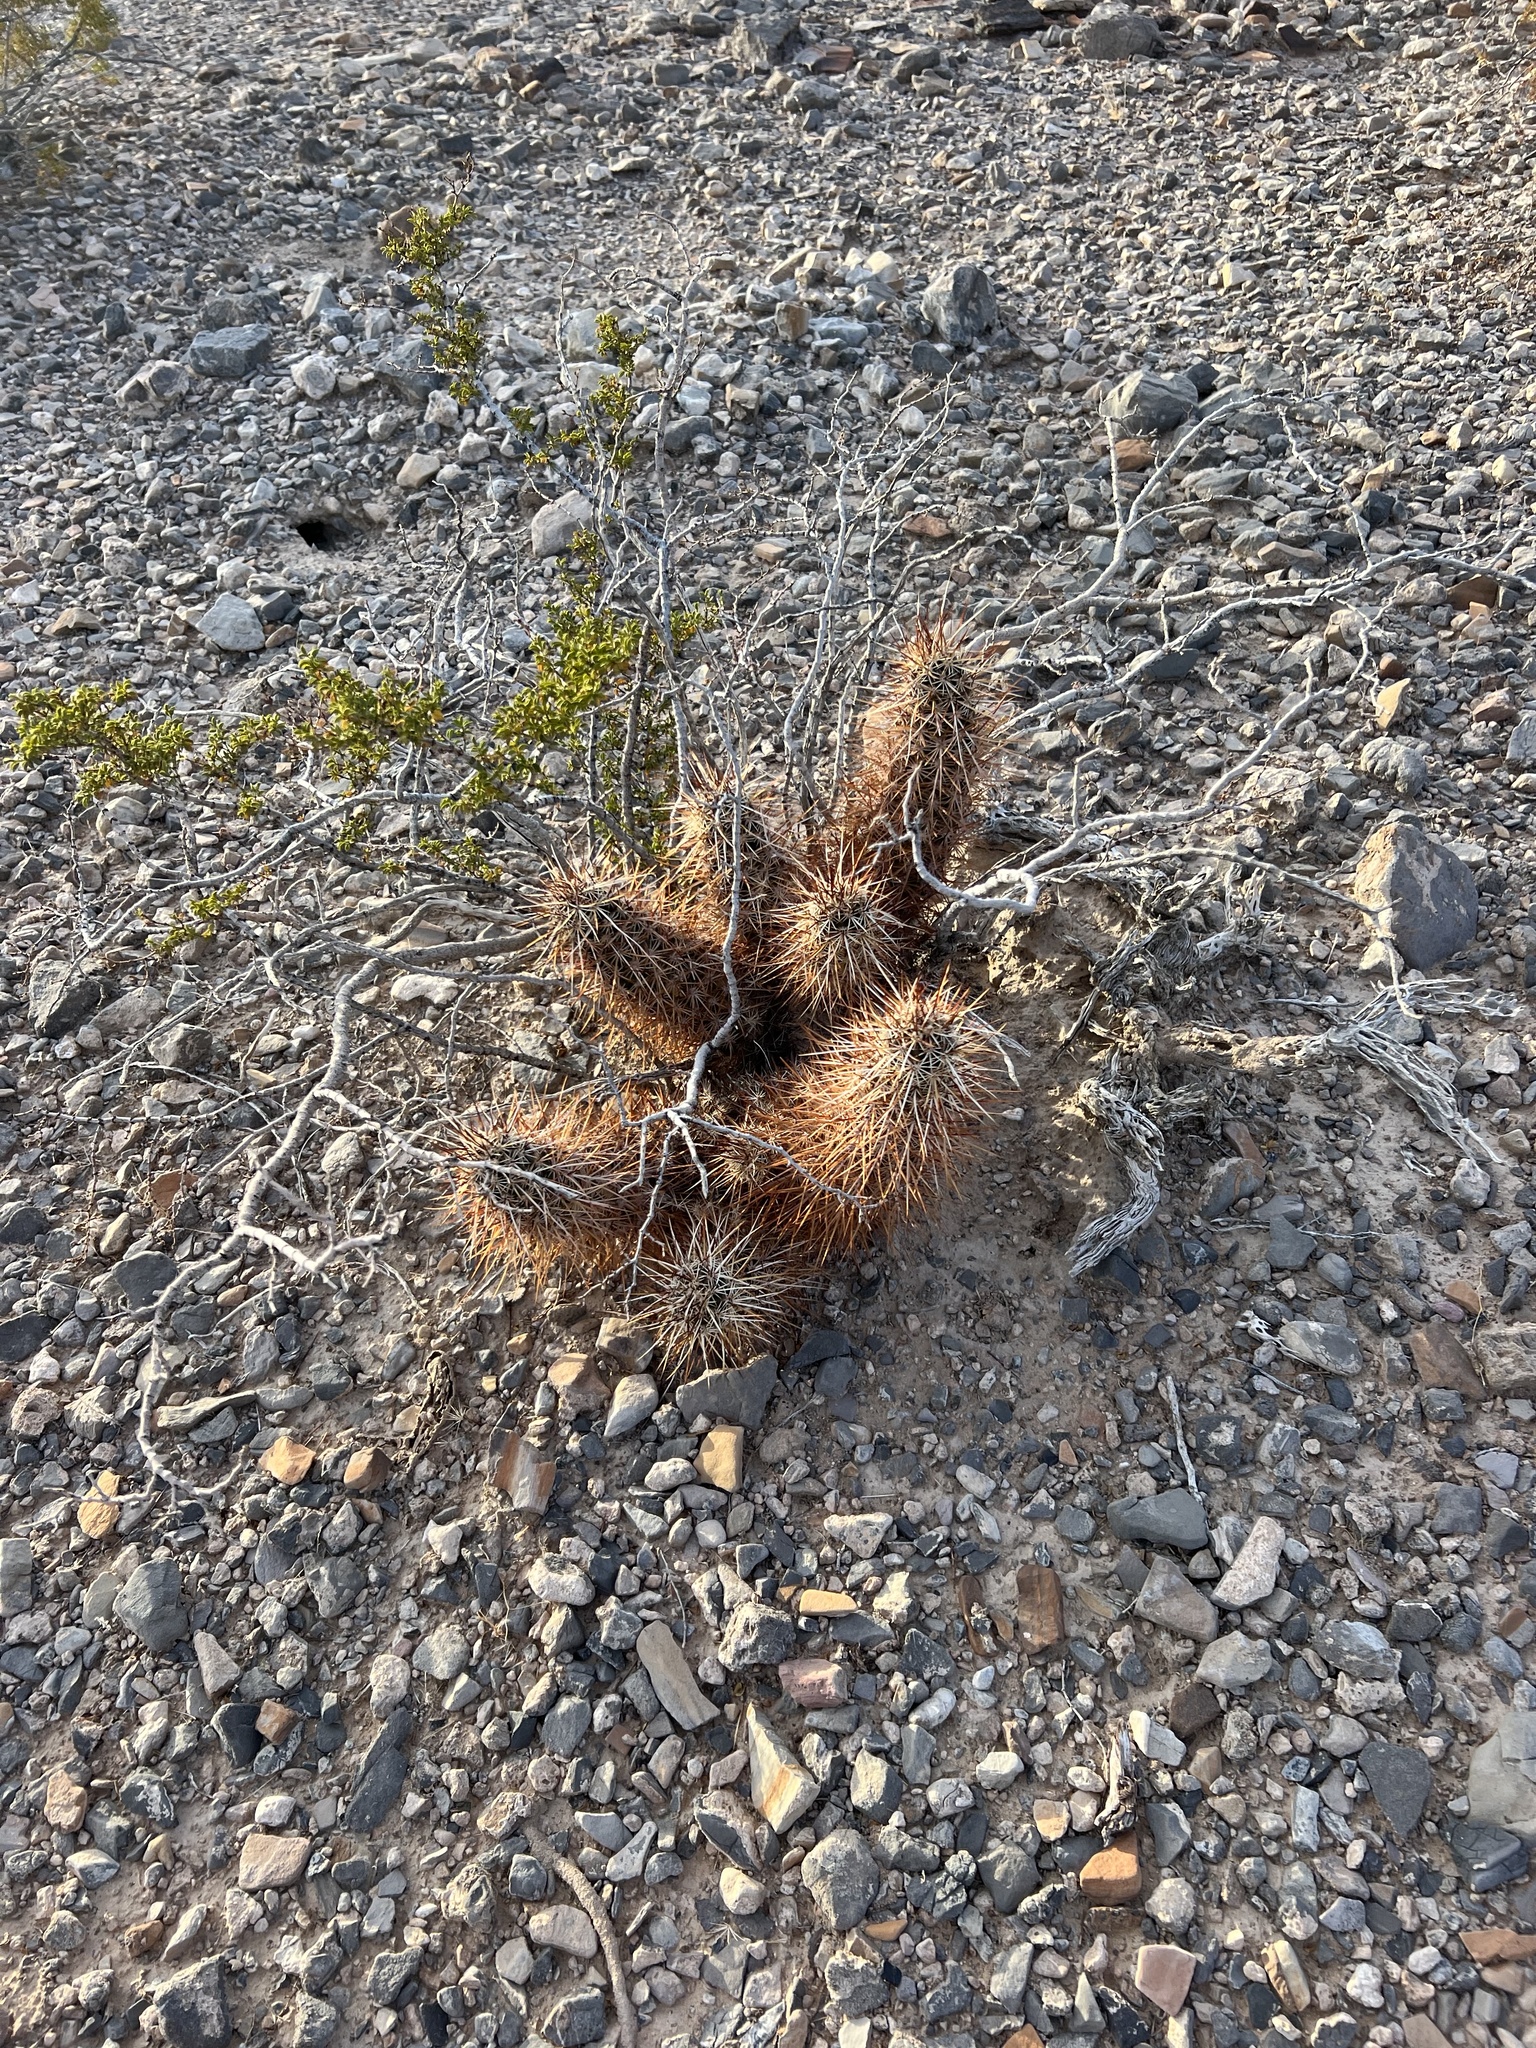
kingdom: Plantae
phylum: Tracheophyta
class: Magnoliopsida
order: Caryophyllales
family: Cactaceae
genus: Echinocereus
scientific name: Echinocereus engelmannii
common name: Engelmann's hedgehog cactus
